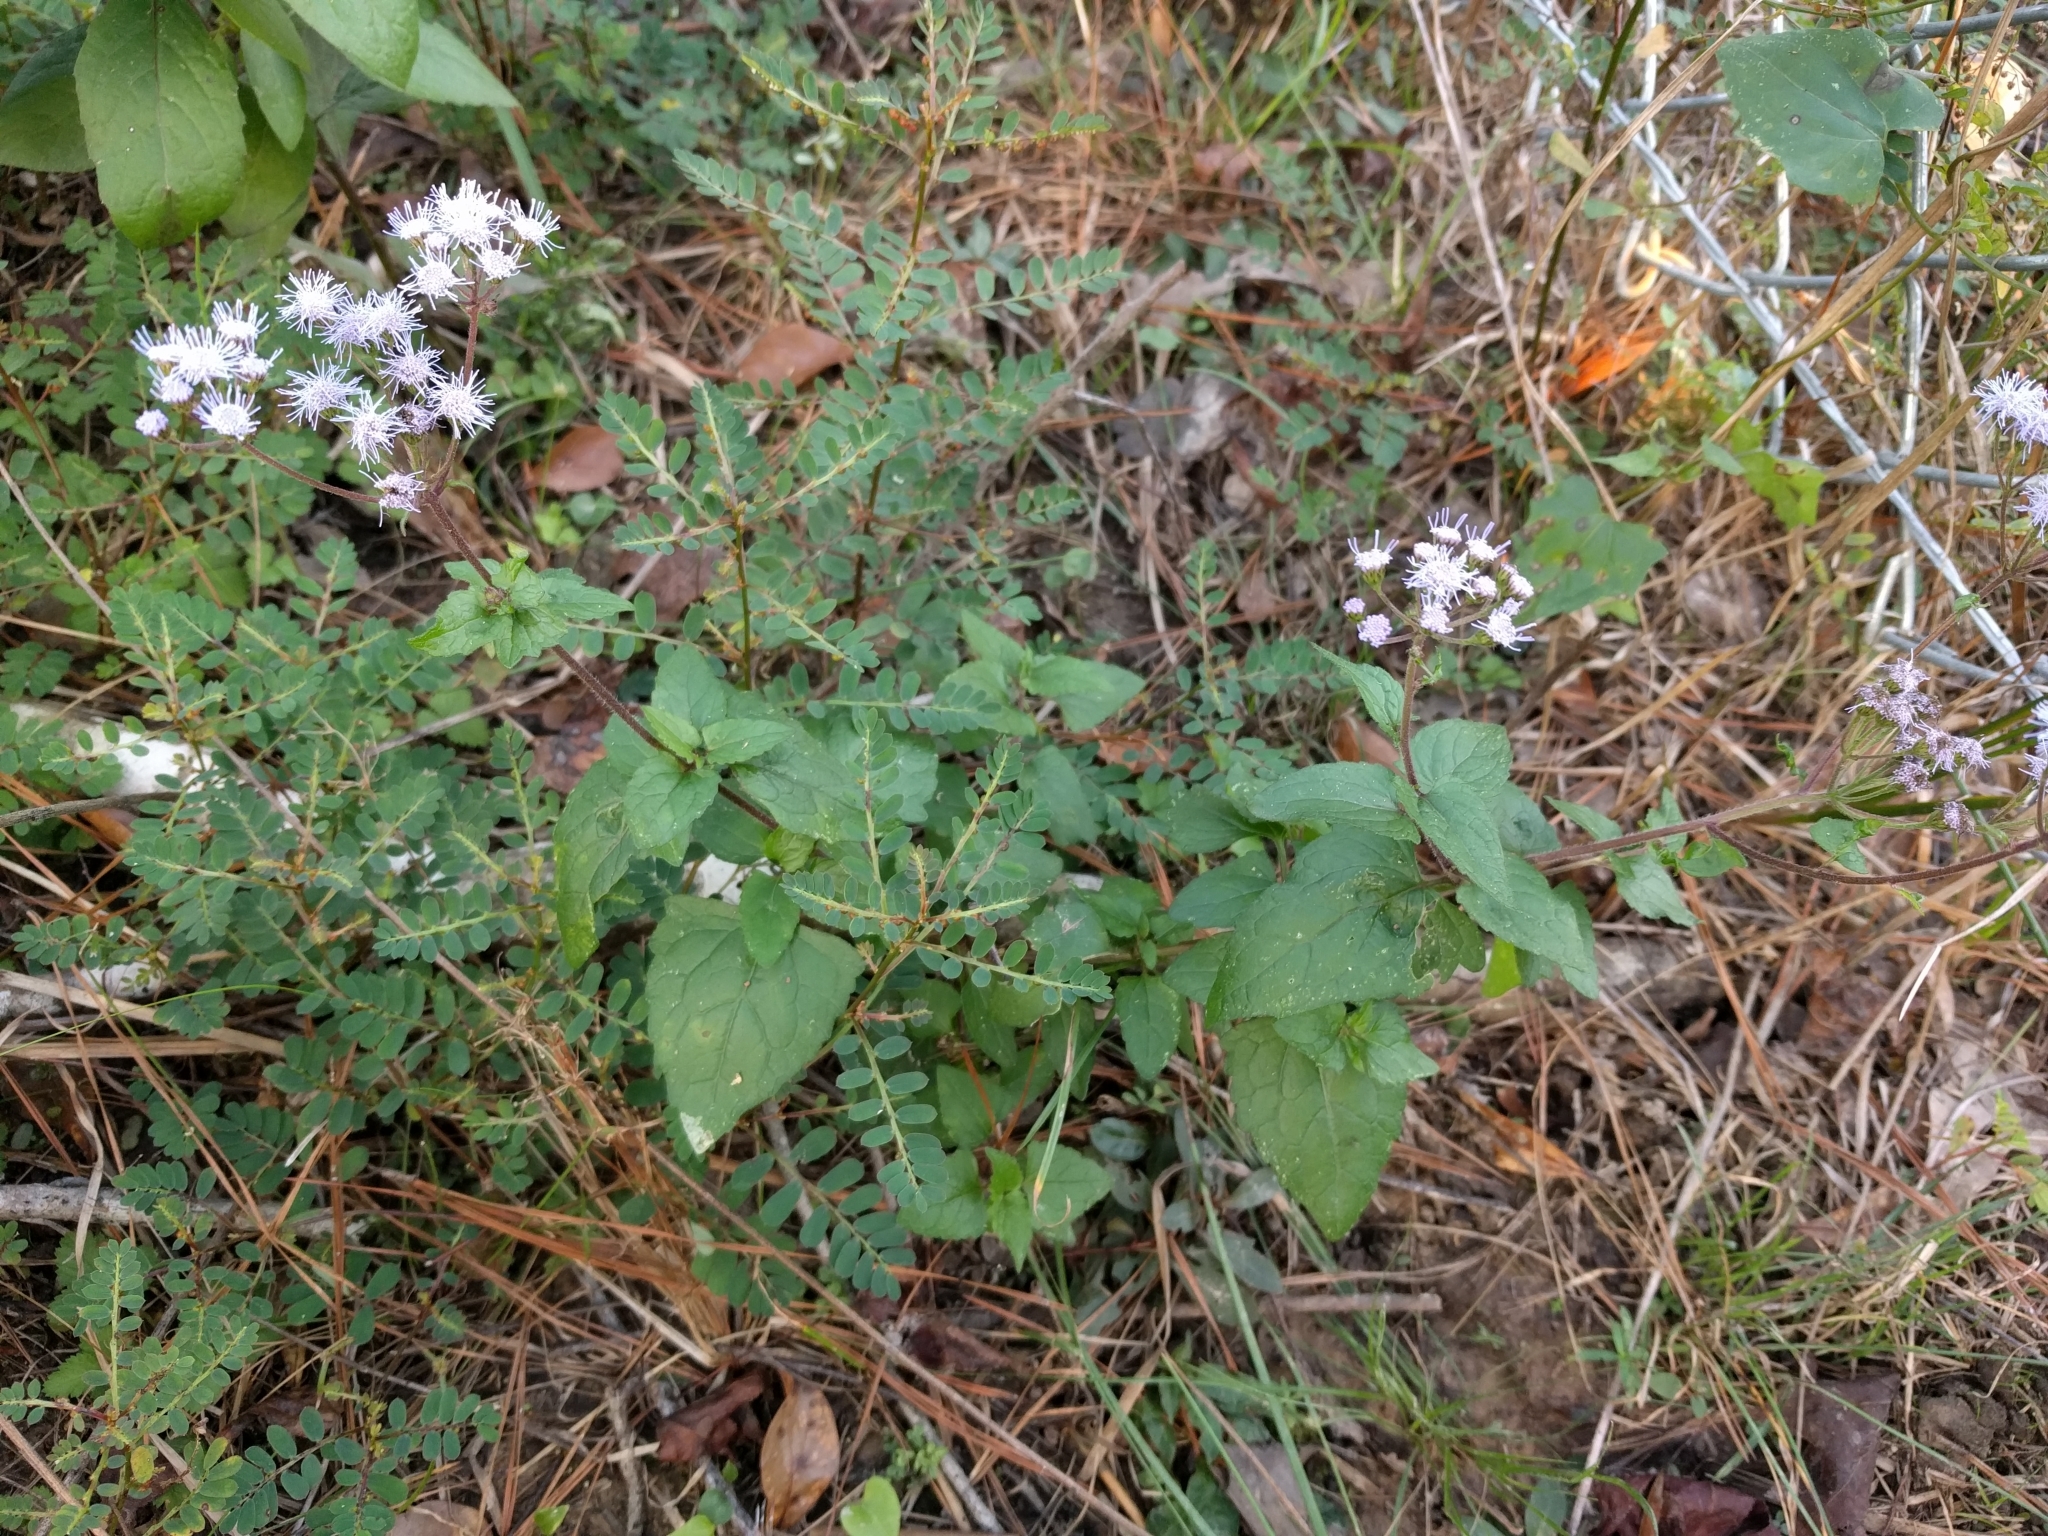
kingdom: Plantae
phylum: Tracheophyta
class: Magnoliopsida
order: Asterales
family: Asteraceae
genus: Conoclinium
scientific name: Conoclinium coelestinum
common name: Blue mistflower
